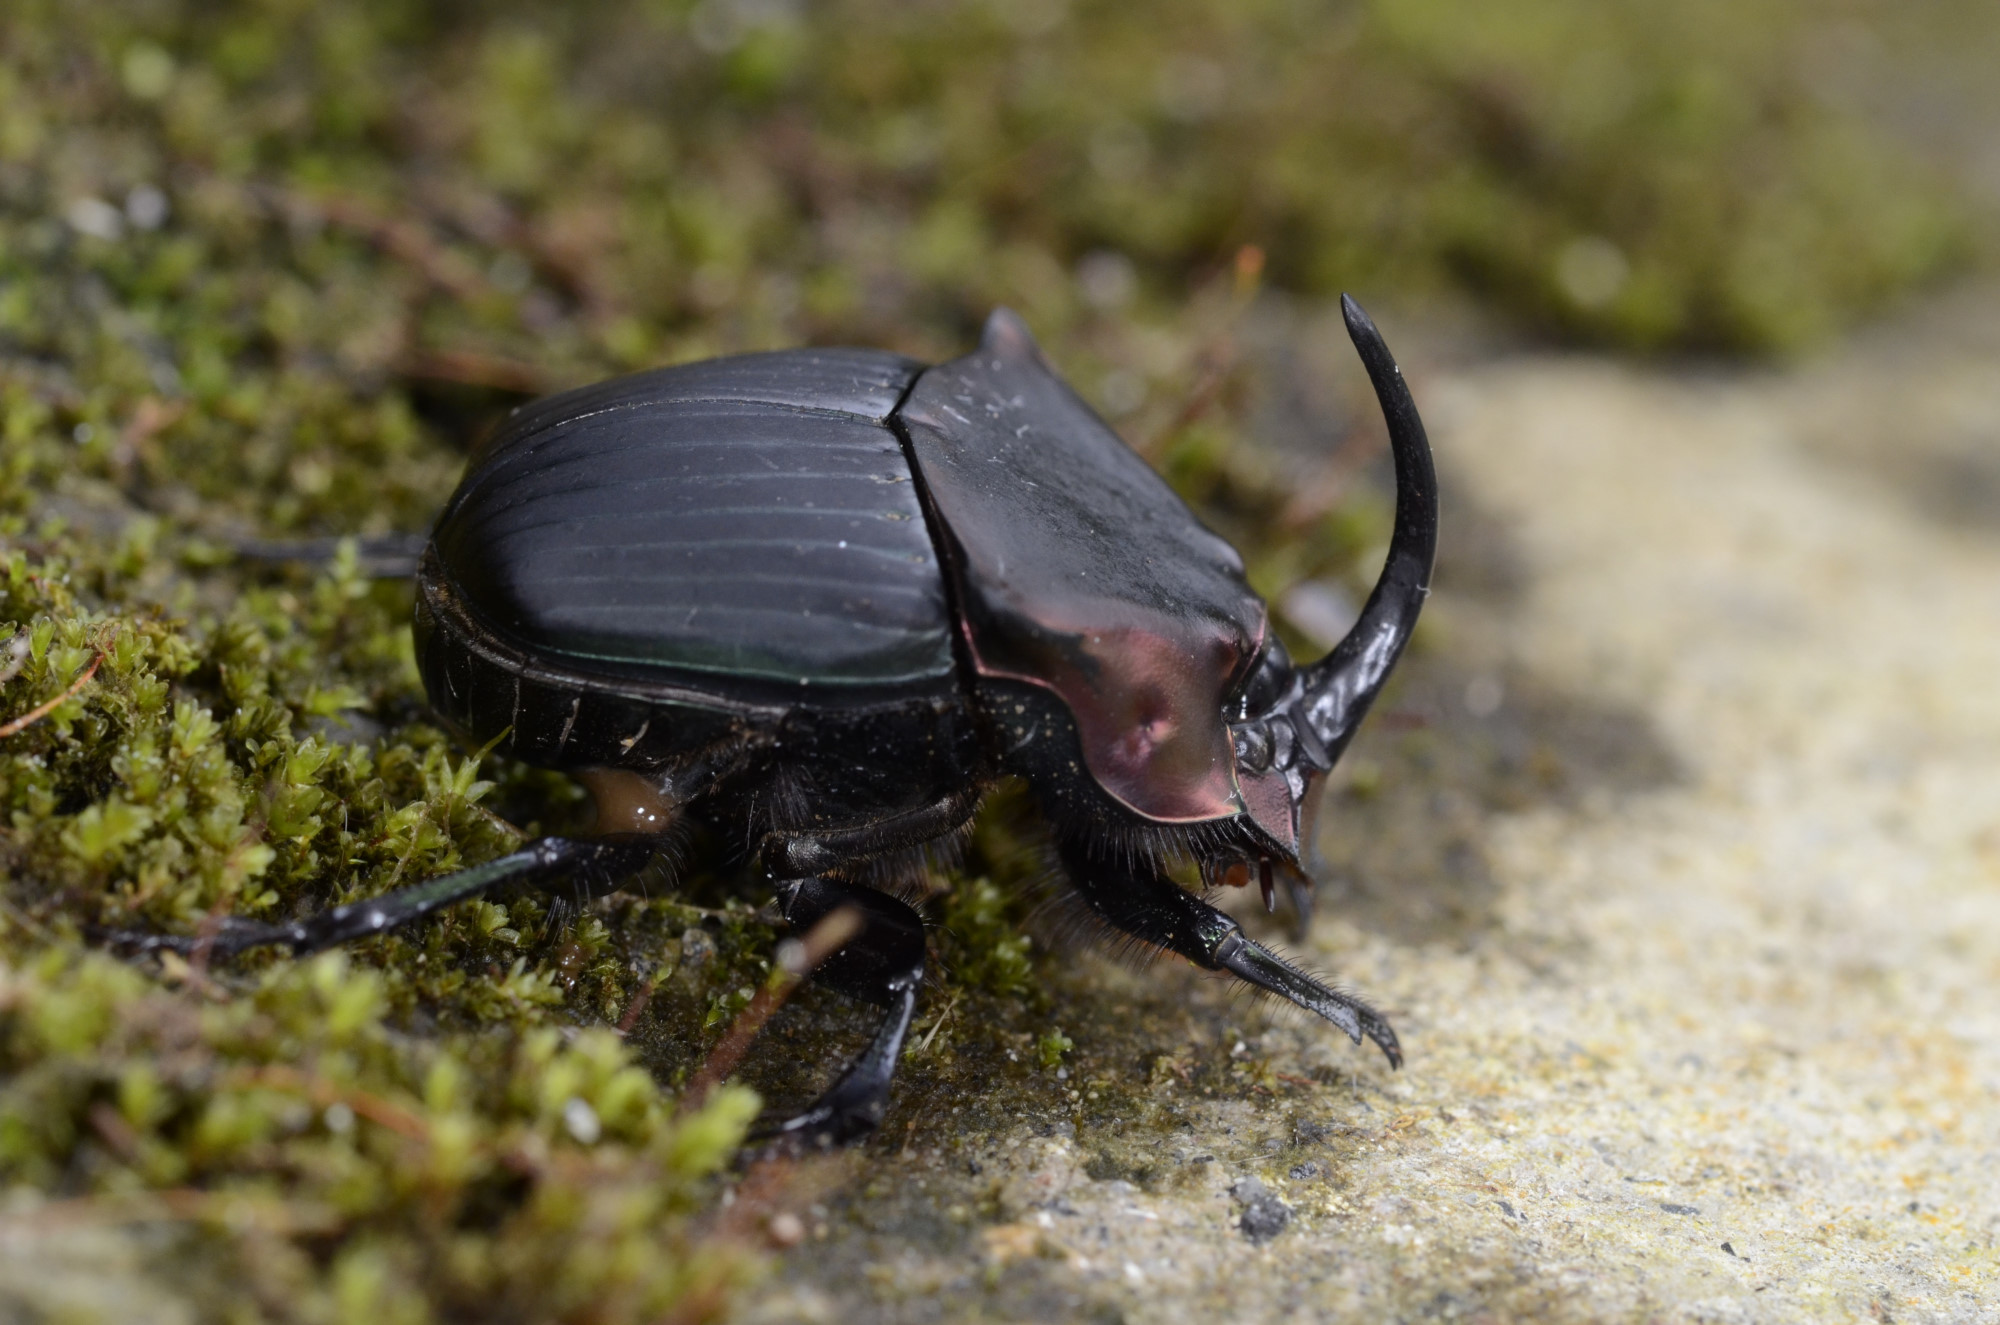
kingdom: Animalia
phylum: Arthropoda
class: Insecta
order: Coleoptera
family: Scarabaeidae
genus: Phanaeus
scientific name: Phanaeus pyrois
